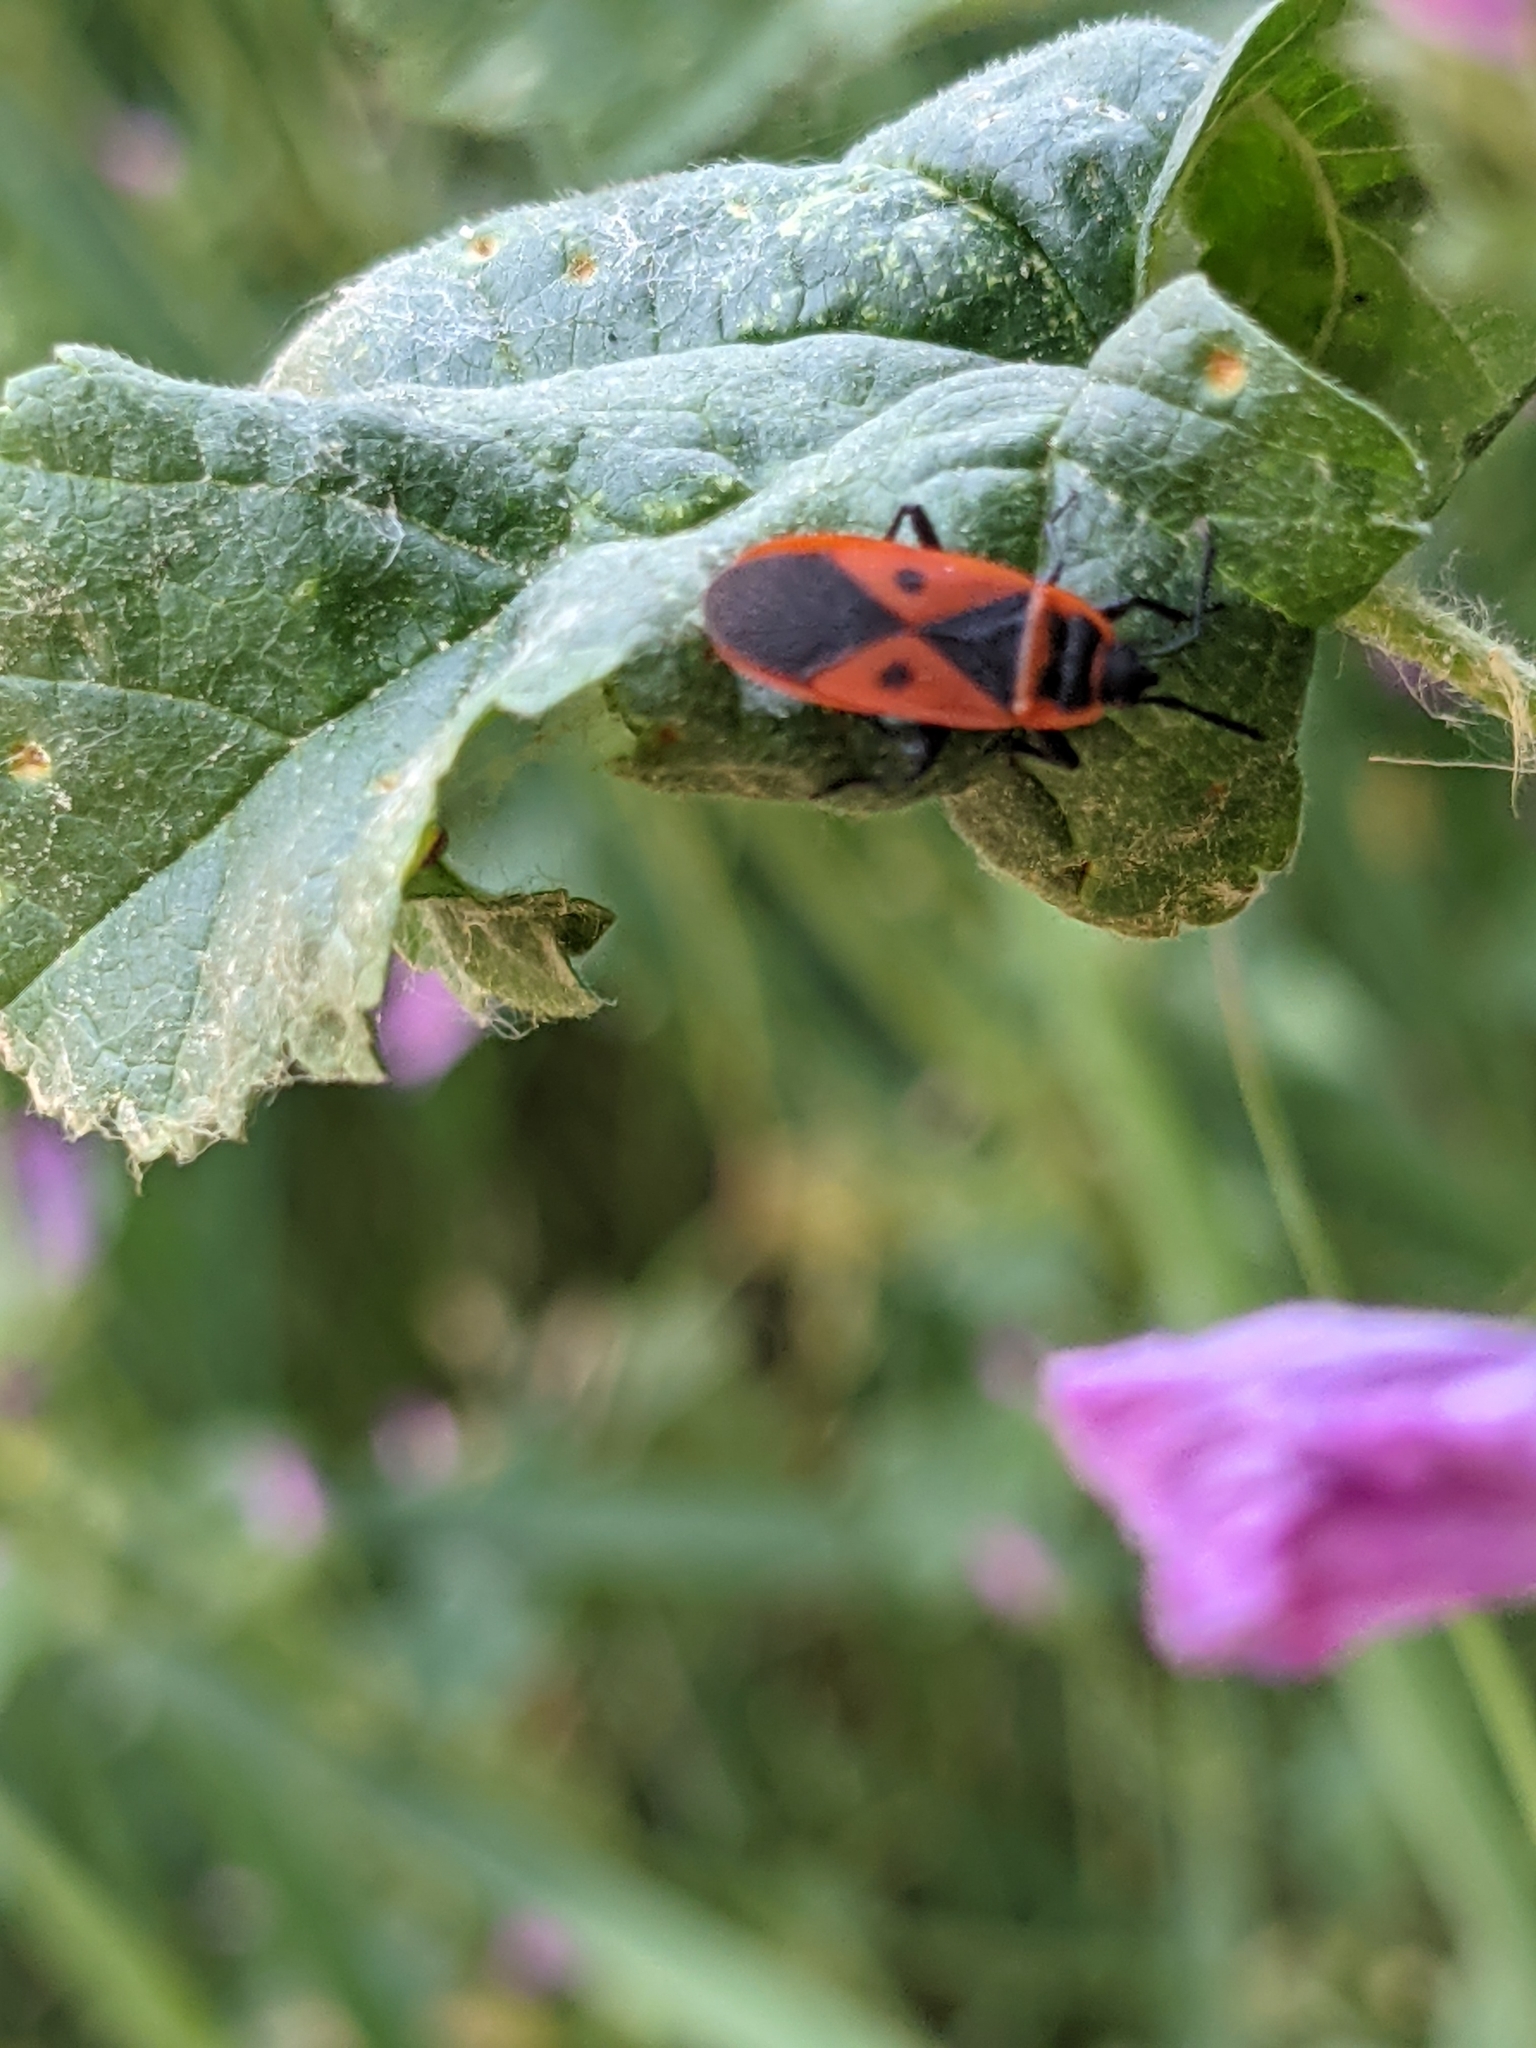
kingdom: Animalia
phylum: Arthropoda
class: Insecta
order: Hemiptera
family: Pyrrhocoridae
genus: Scantius
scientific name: Scantius aegyptius
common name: Red bug
